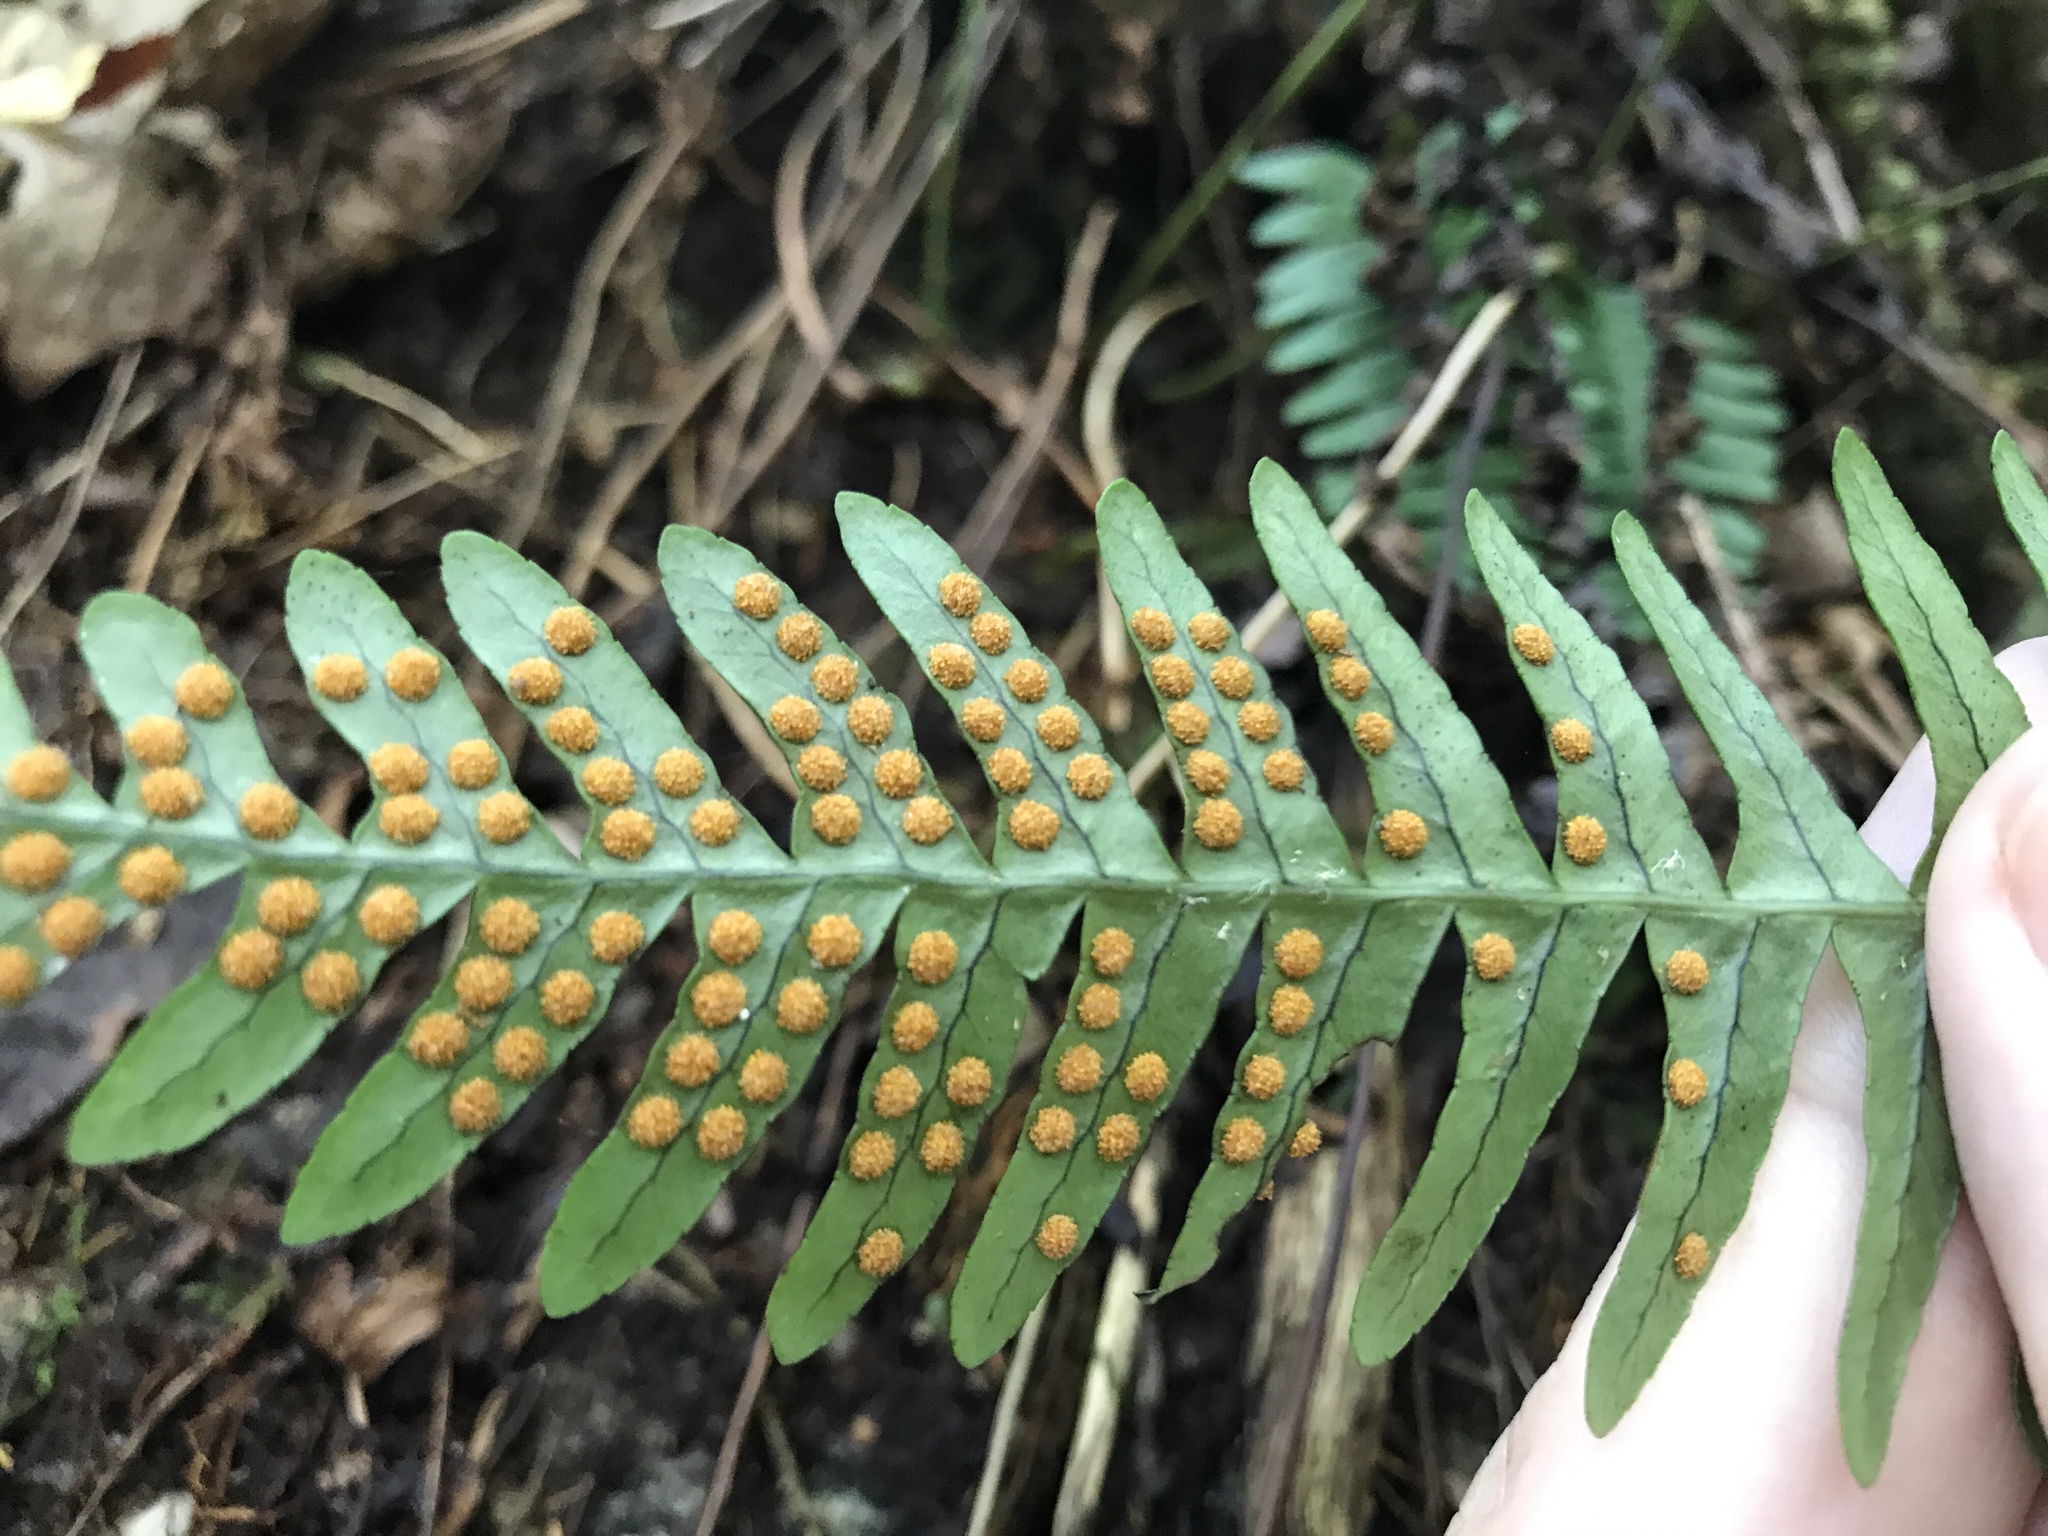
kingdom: Plantae
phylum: Tracheophyta
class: Polypodiopsida
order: Polypodiales
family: Polypodiaceae
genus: Polypodium
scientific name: Polypodium virginianum
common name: American wall fern
